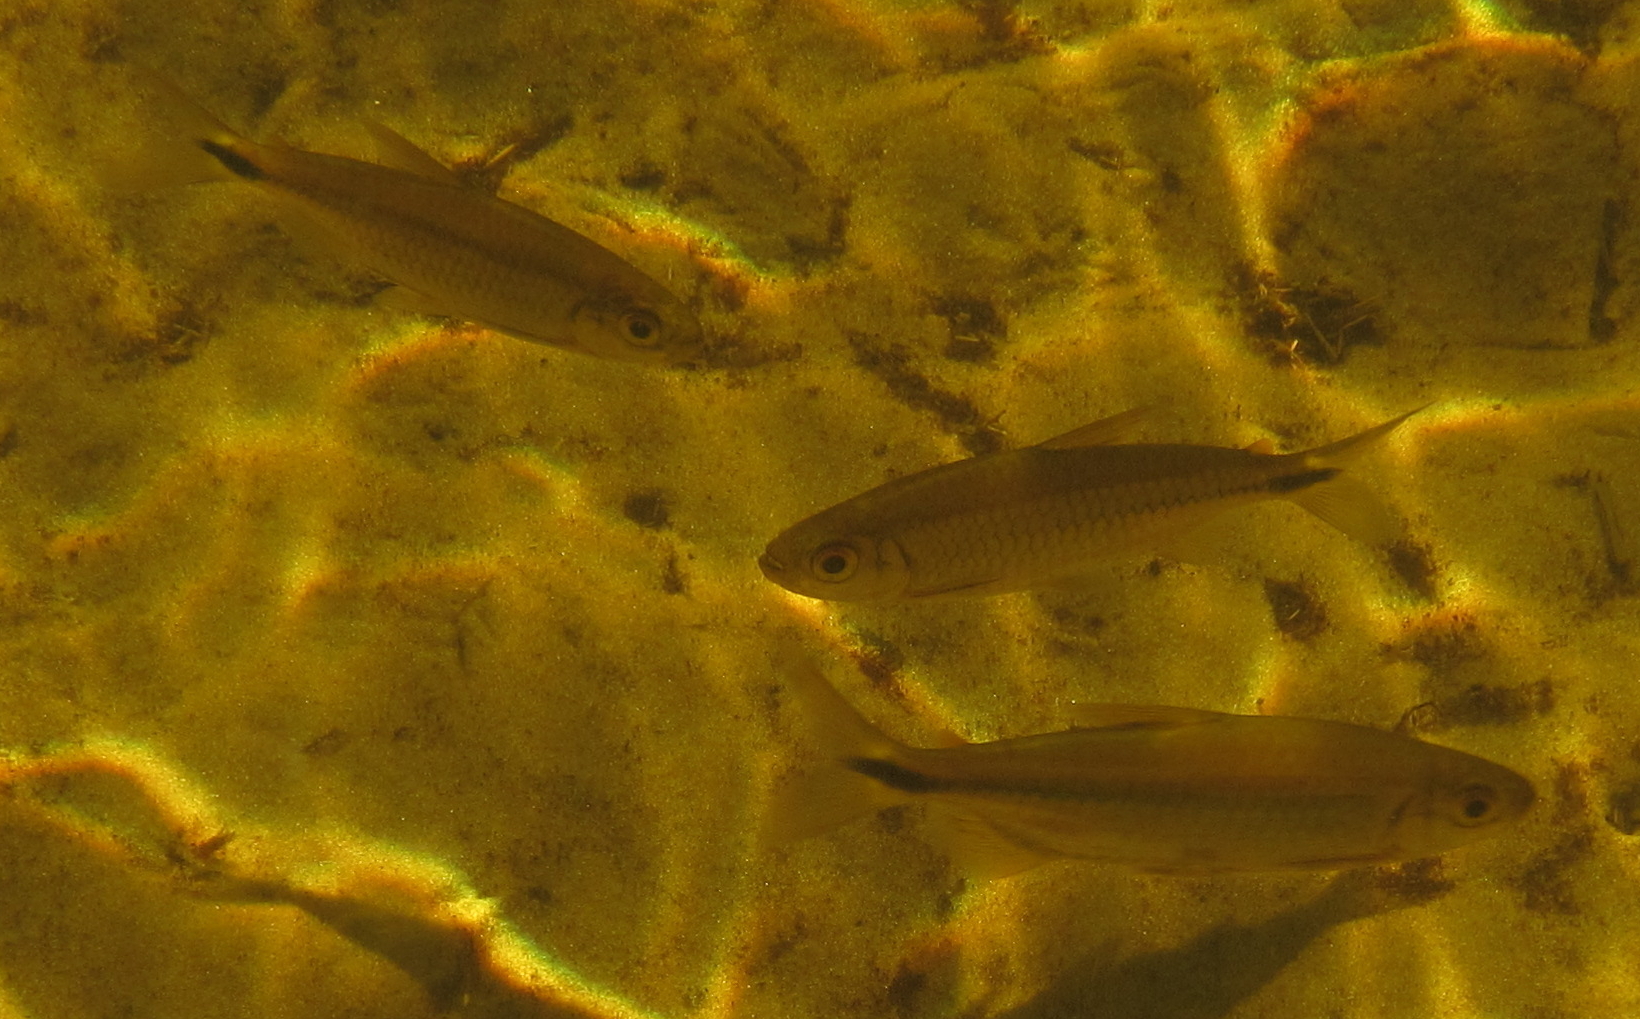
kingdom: Animalia
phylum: Chordata
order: Characiformes
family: Alestidae
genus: Alestes
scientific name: Alestes
